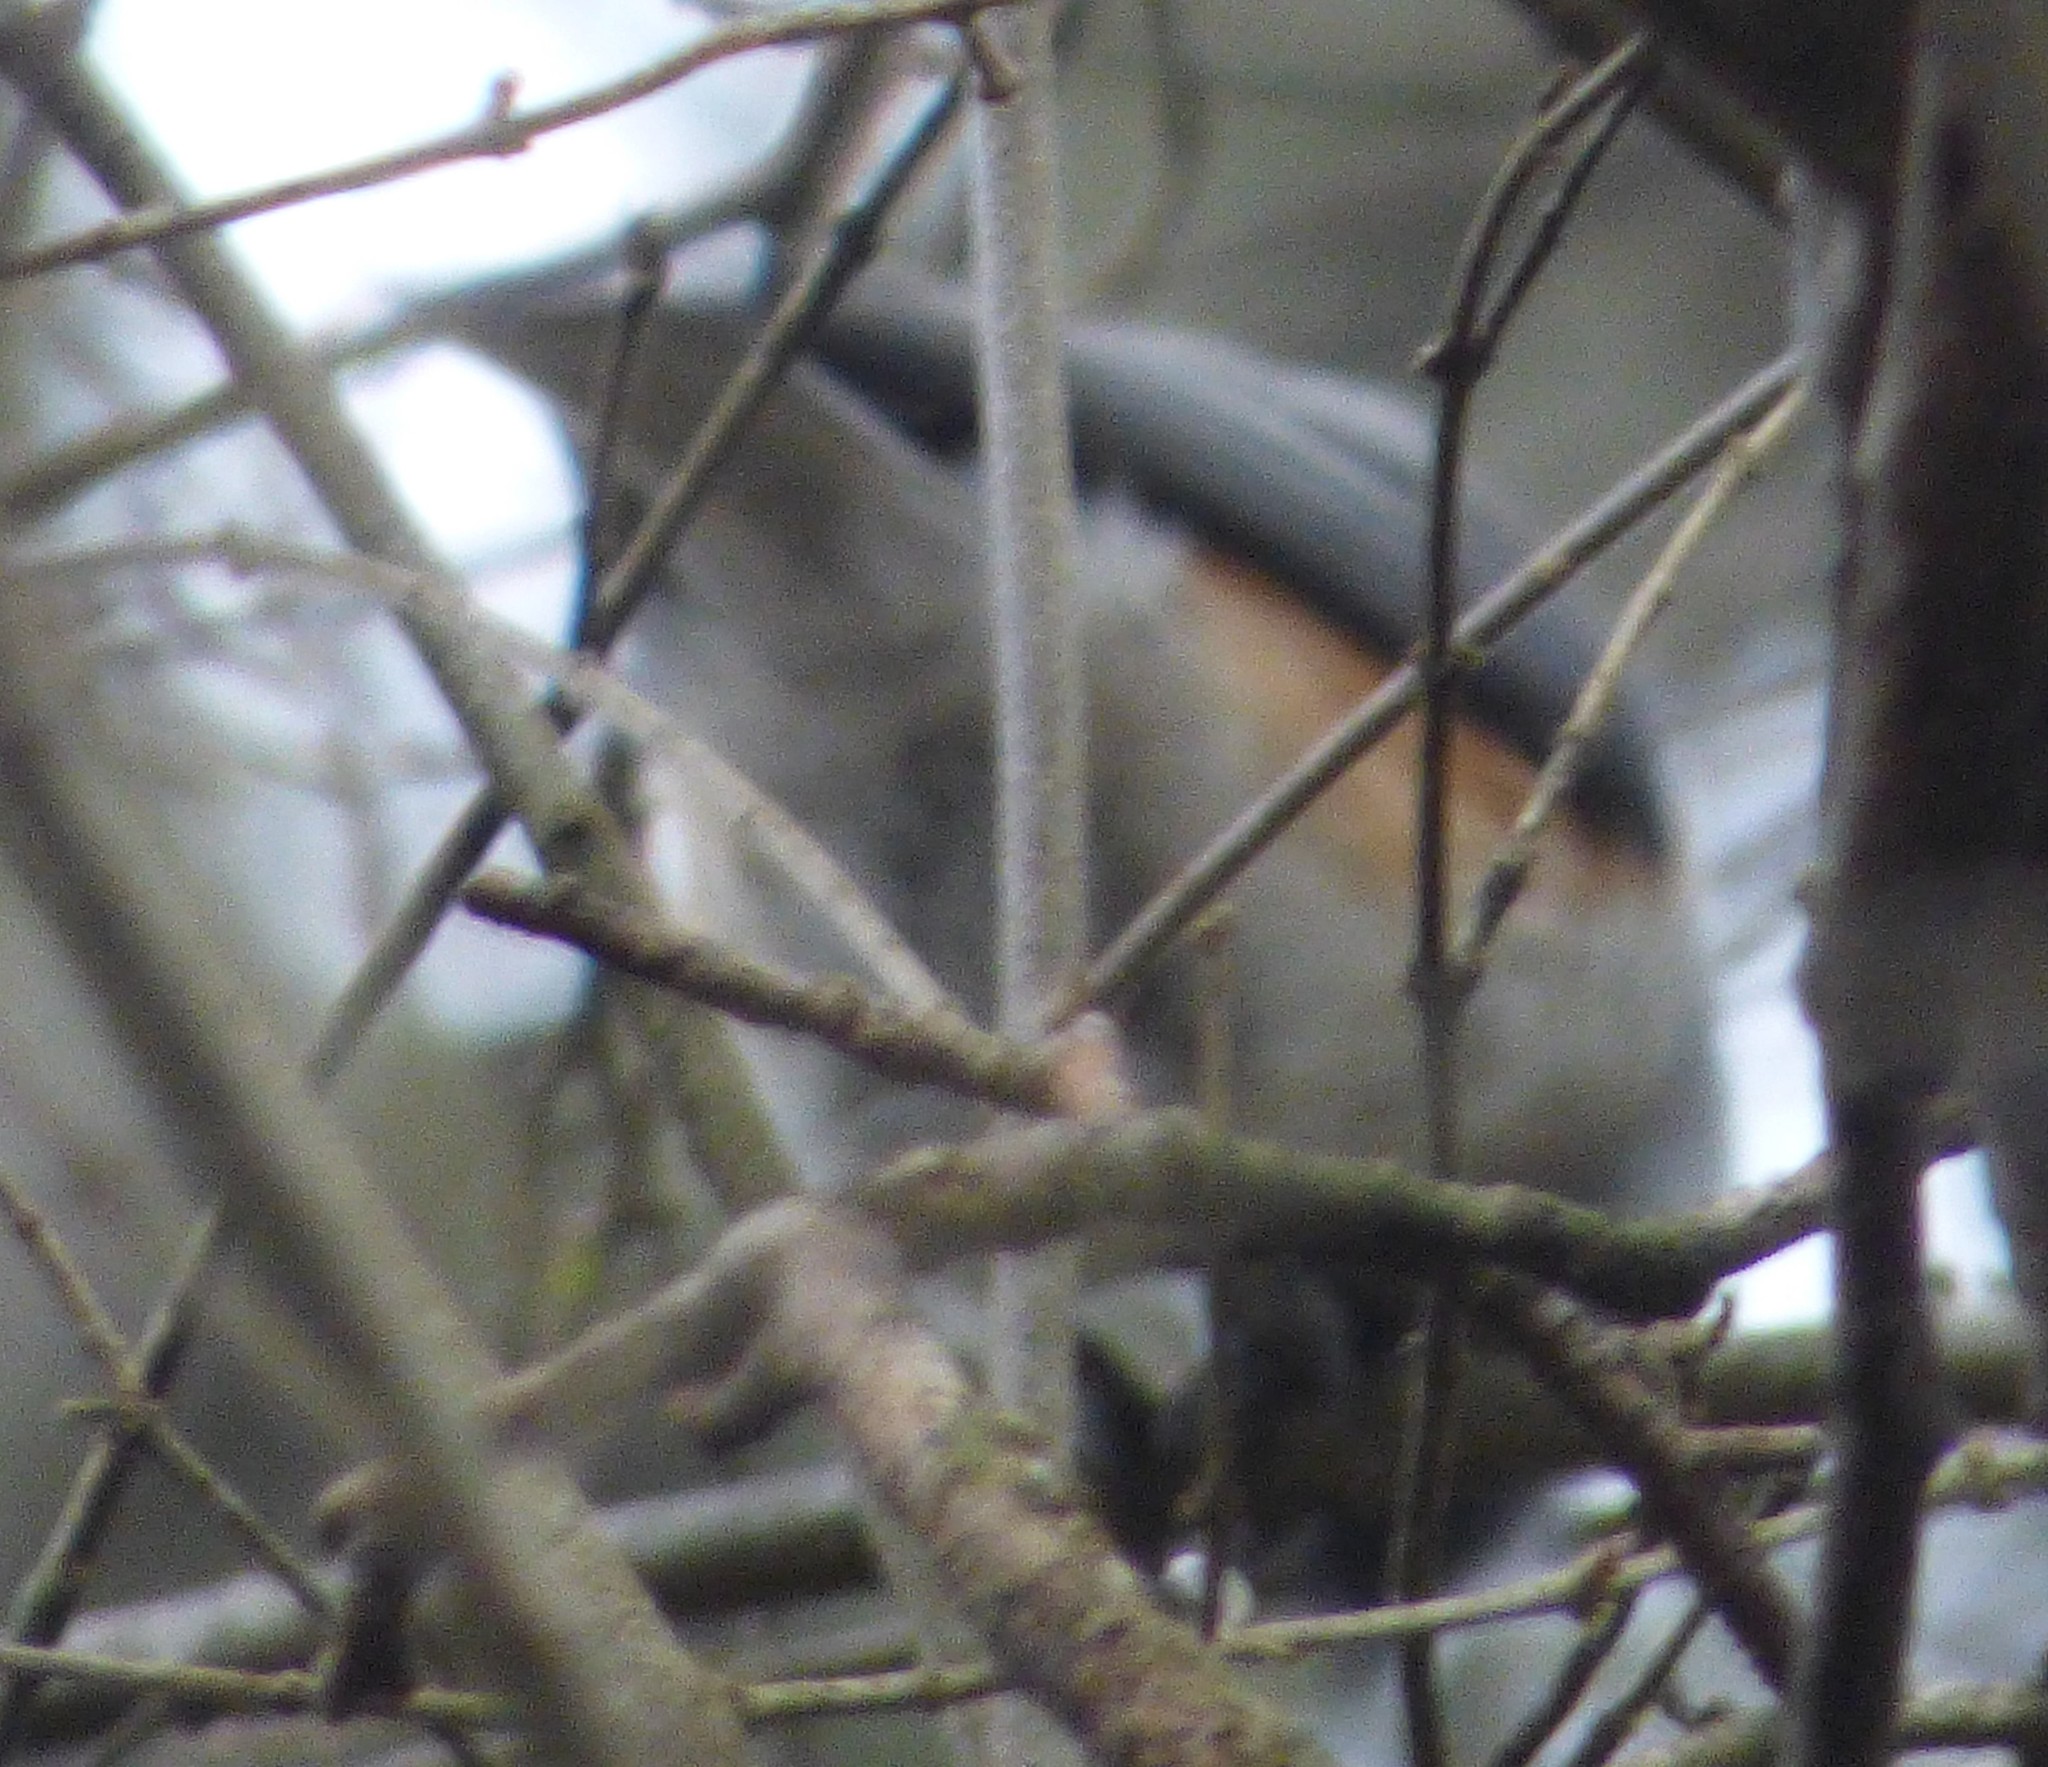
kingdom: Animalia
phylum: Chordata
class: Aves
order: Passeriformes
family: Paridae
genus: Baeolophus
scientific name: Baeolophus bicolor
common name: Tufted titmouse
